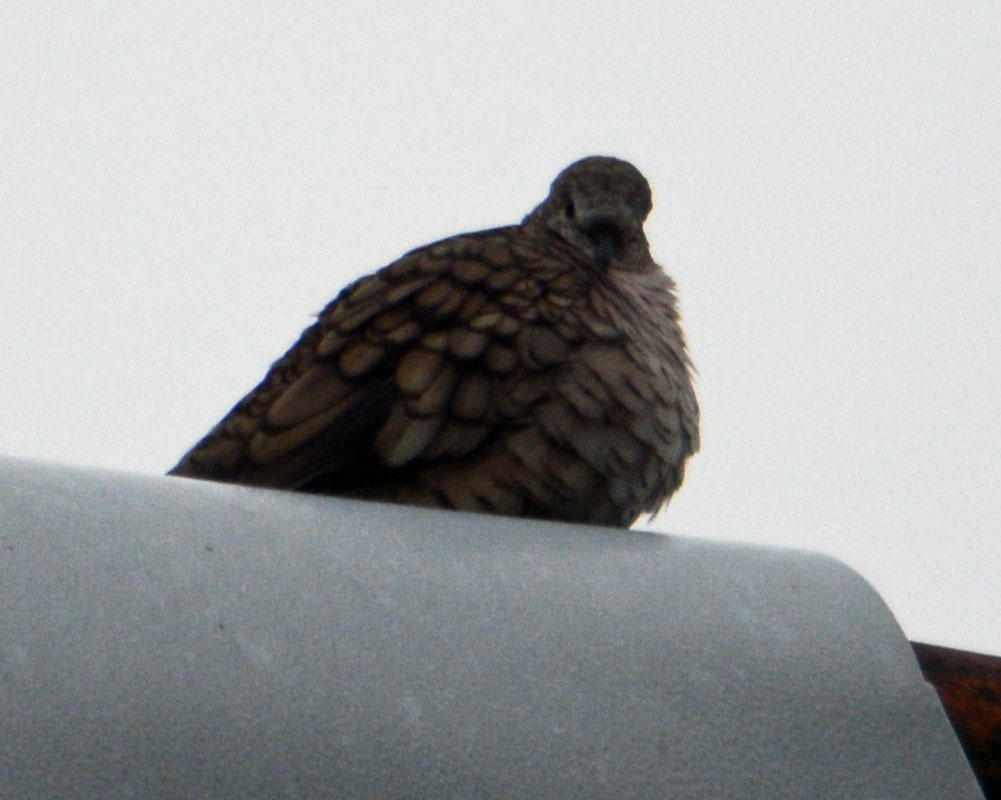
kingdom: Animalia
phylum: Chordata
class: Aves
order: Columbiformes
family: Columbidae
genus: Columbina
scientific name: Columbina inca
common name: Inca dove
